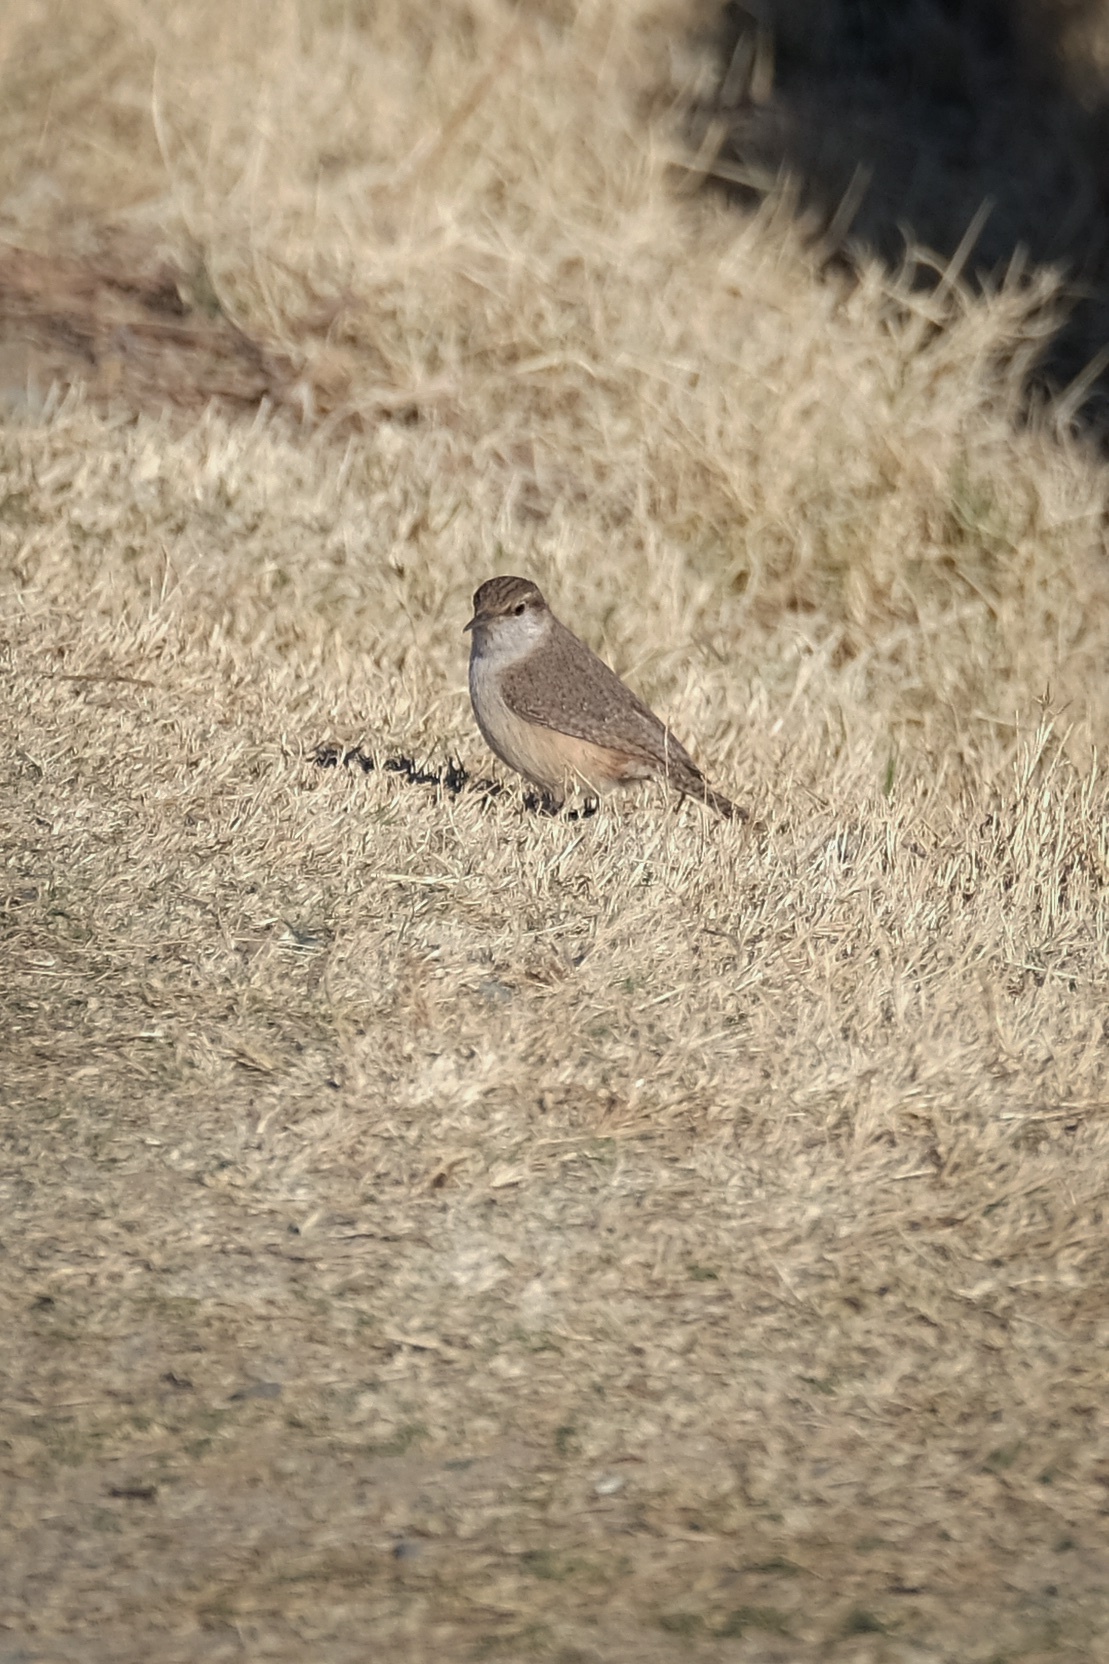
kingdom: Animalia
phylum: Chordata
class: Aves
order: Passeriformes
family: Troglodytidae
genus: Salpinctes
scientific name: Salpinctes obsoletus
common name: Rock wren
